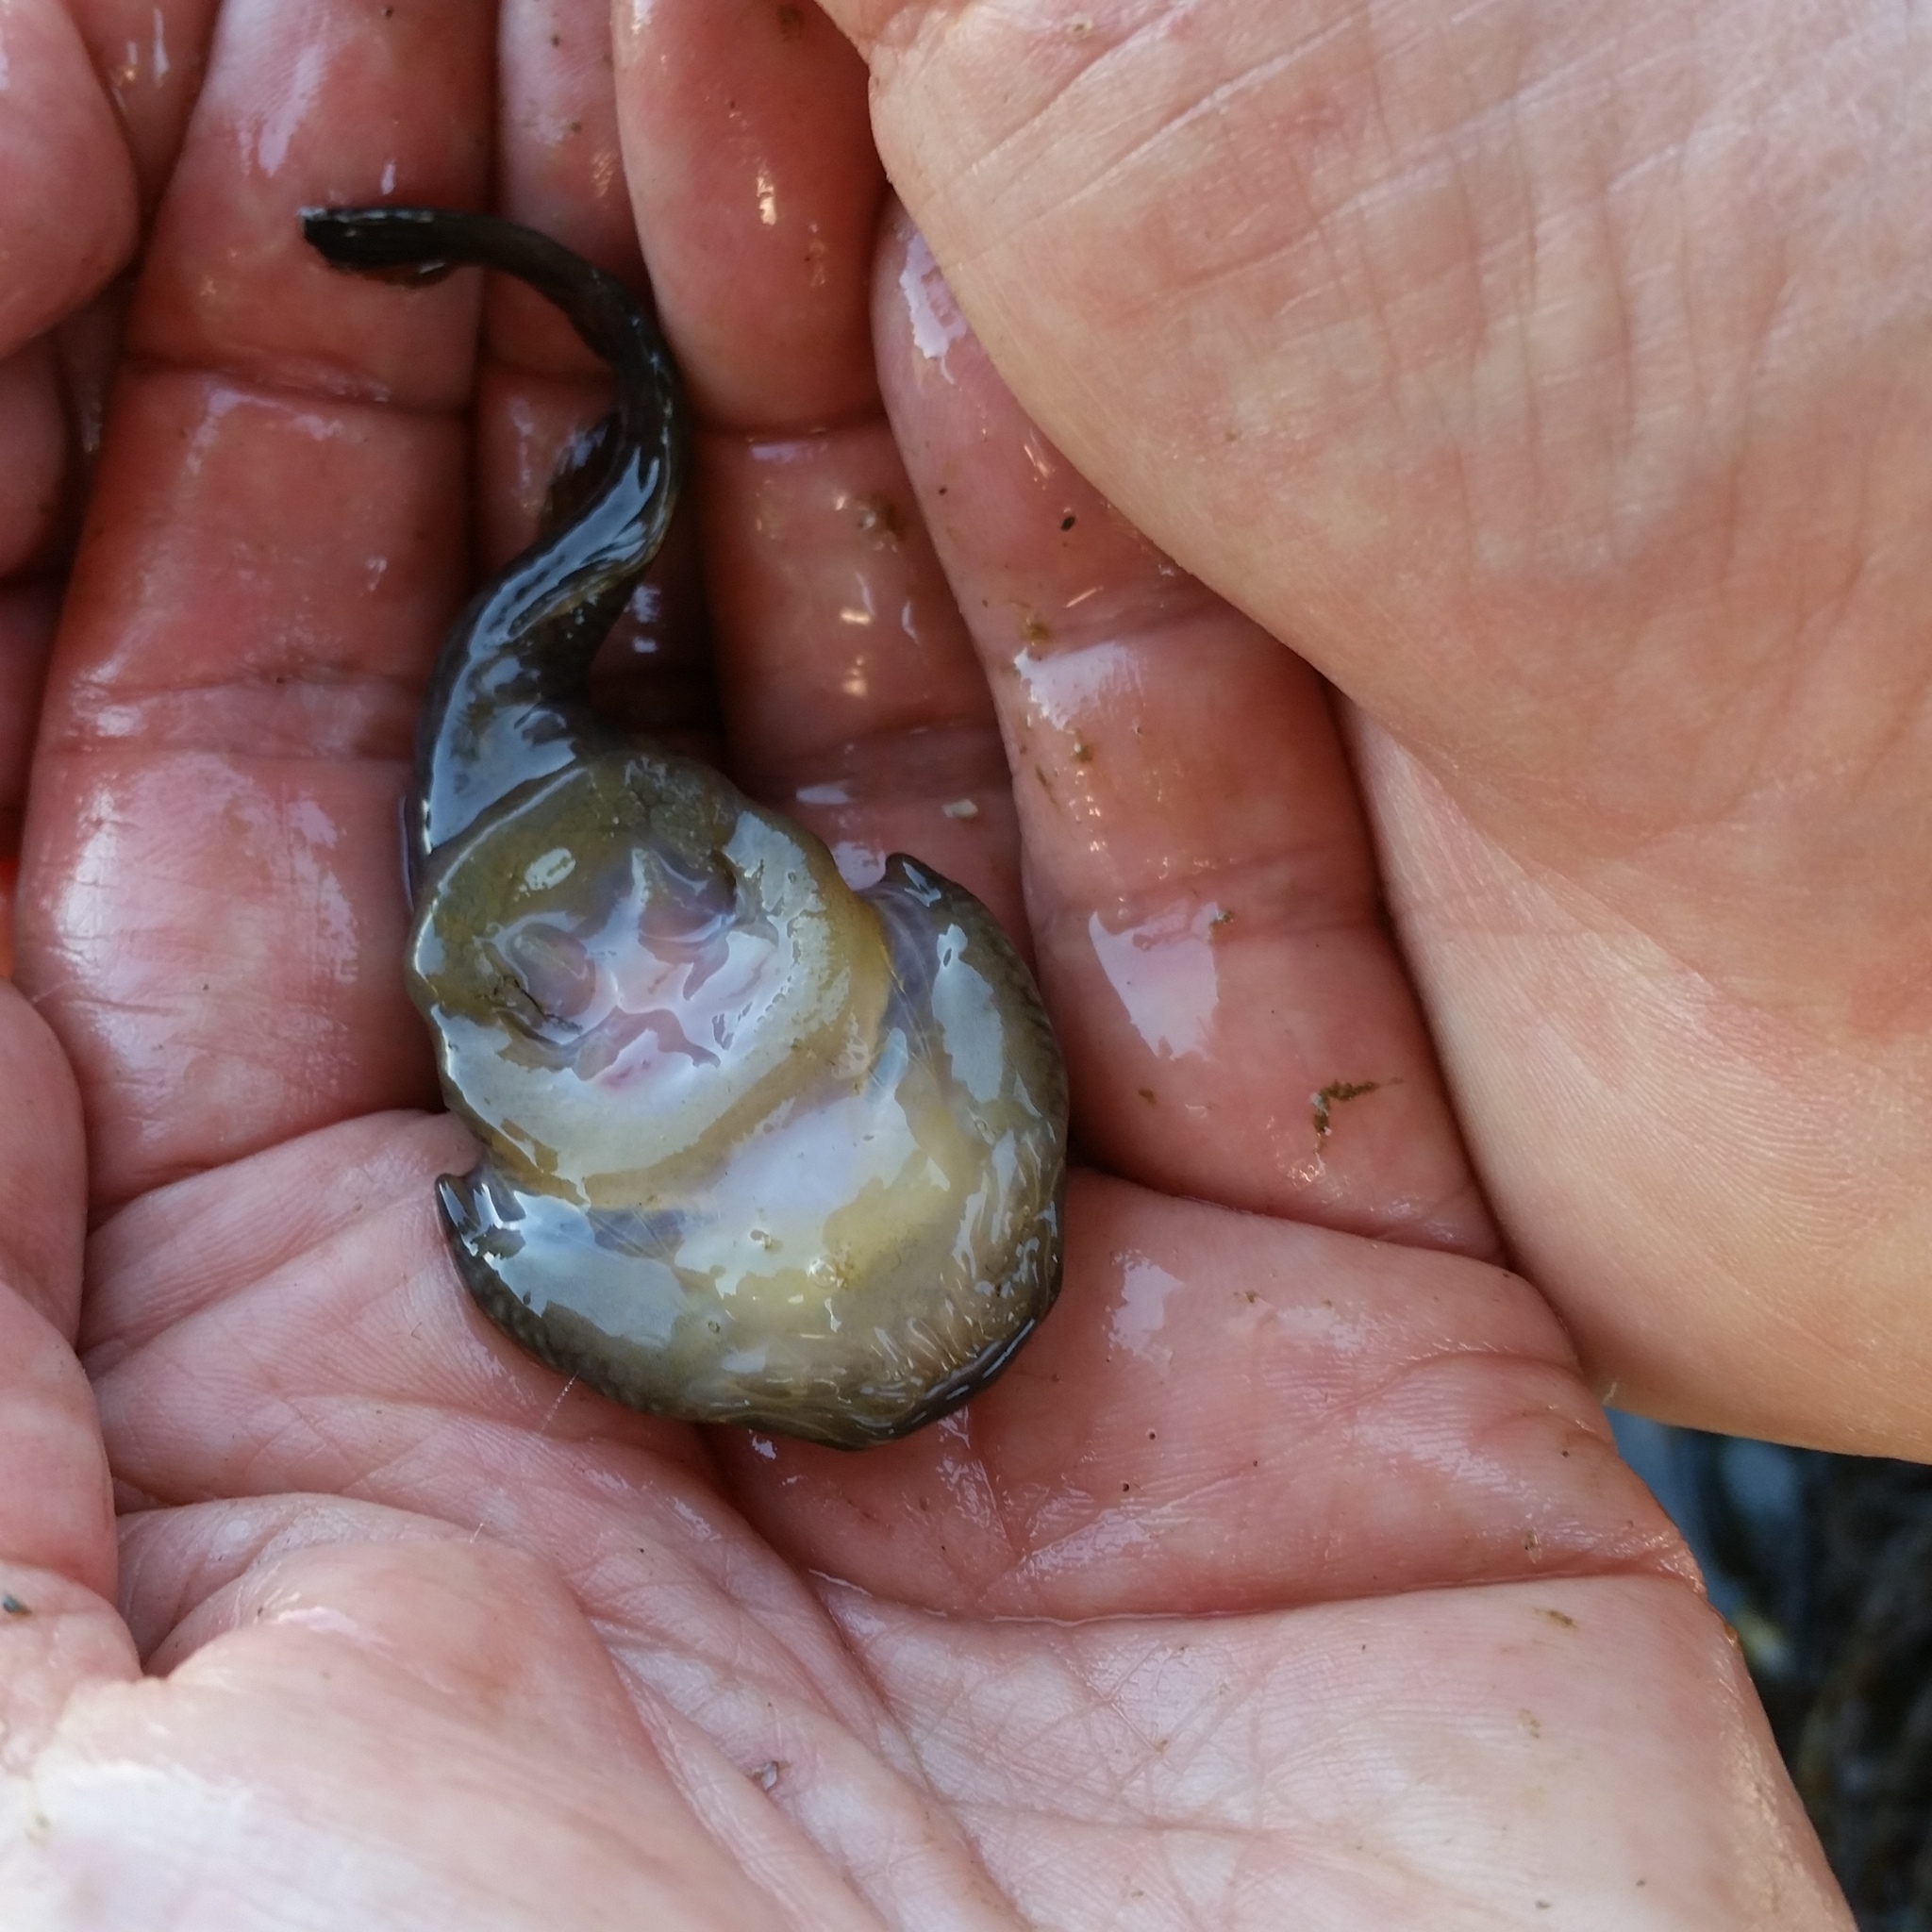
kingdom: Animalia
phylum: Chordata
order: Gobiesociformes
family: Gobiesocidae
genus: Gobiesox
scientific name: Gobiesox maeandricus
